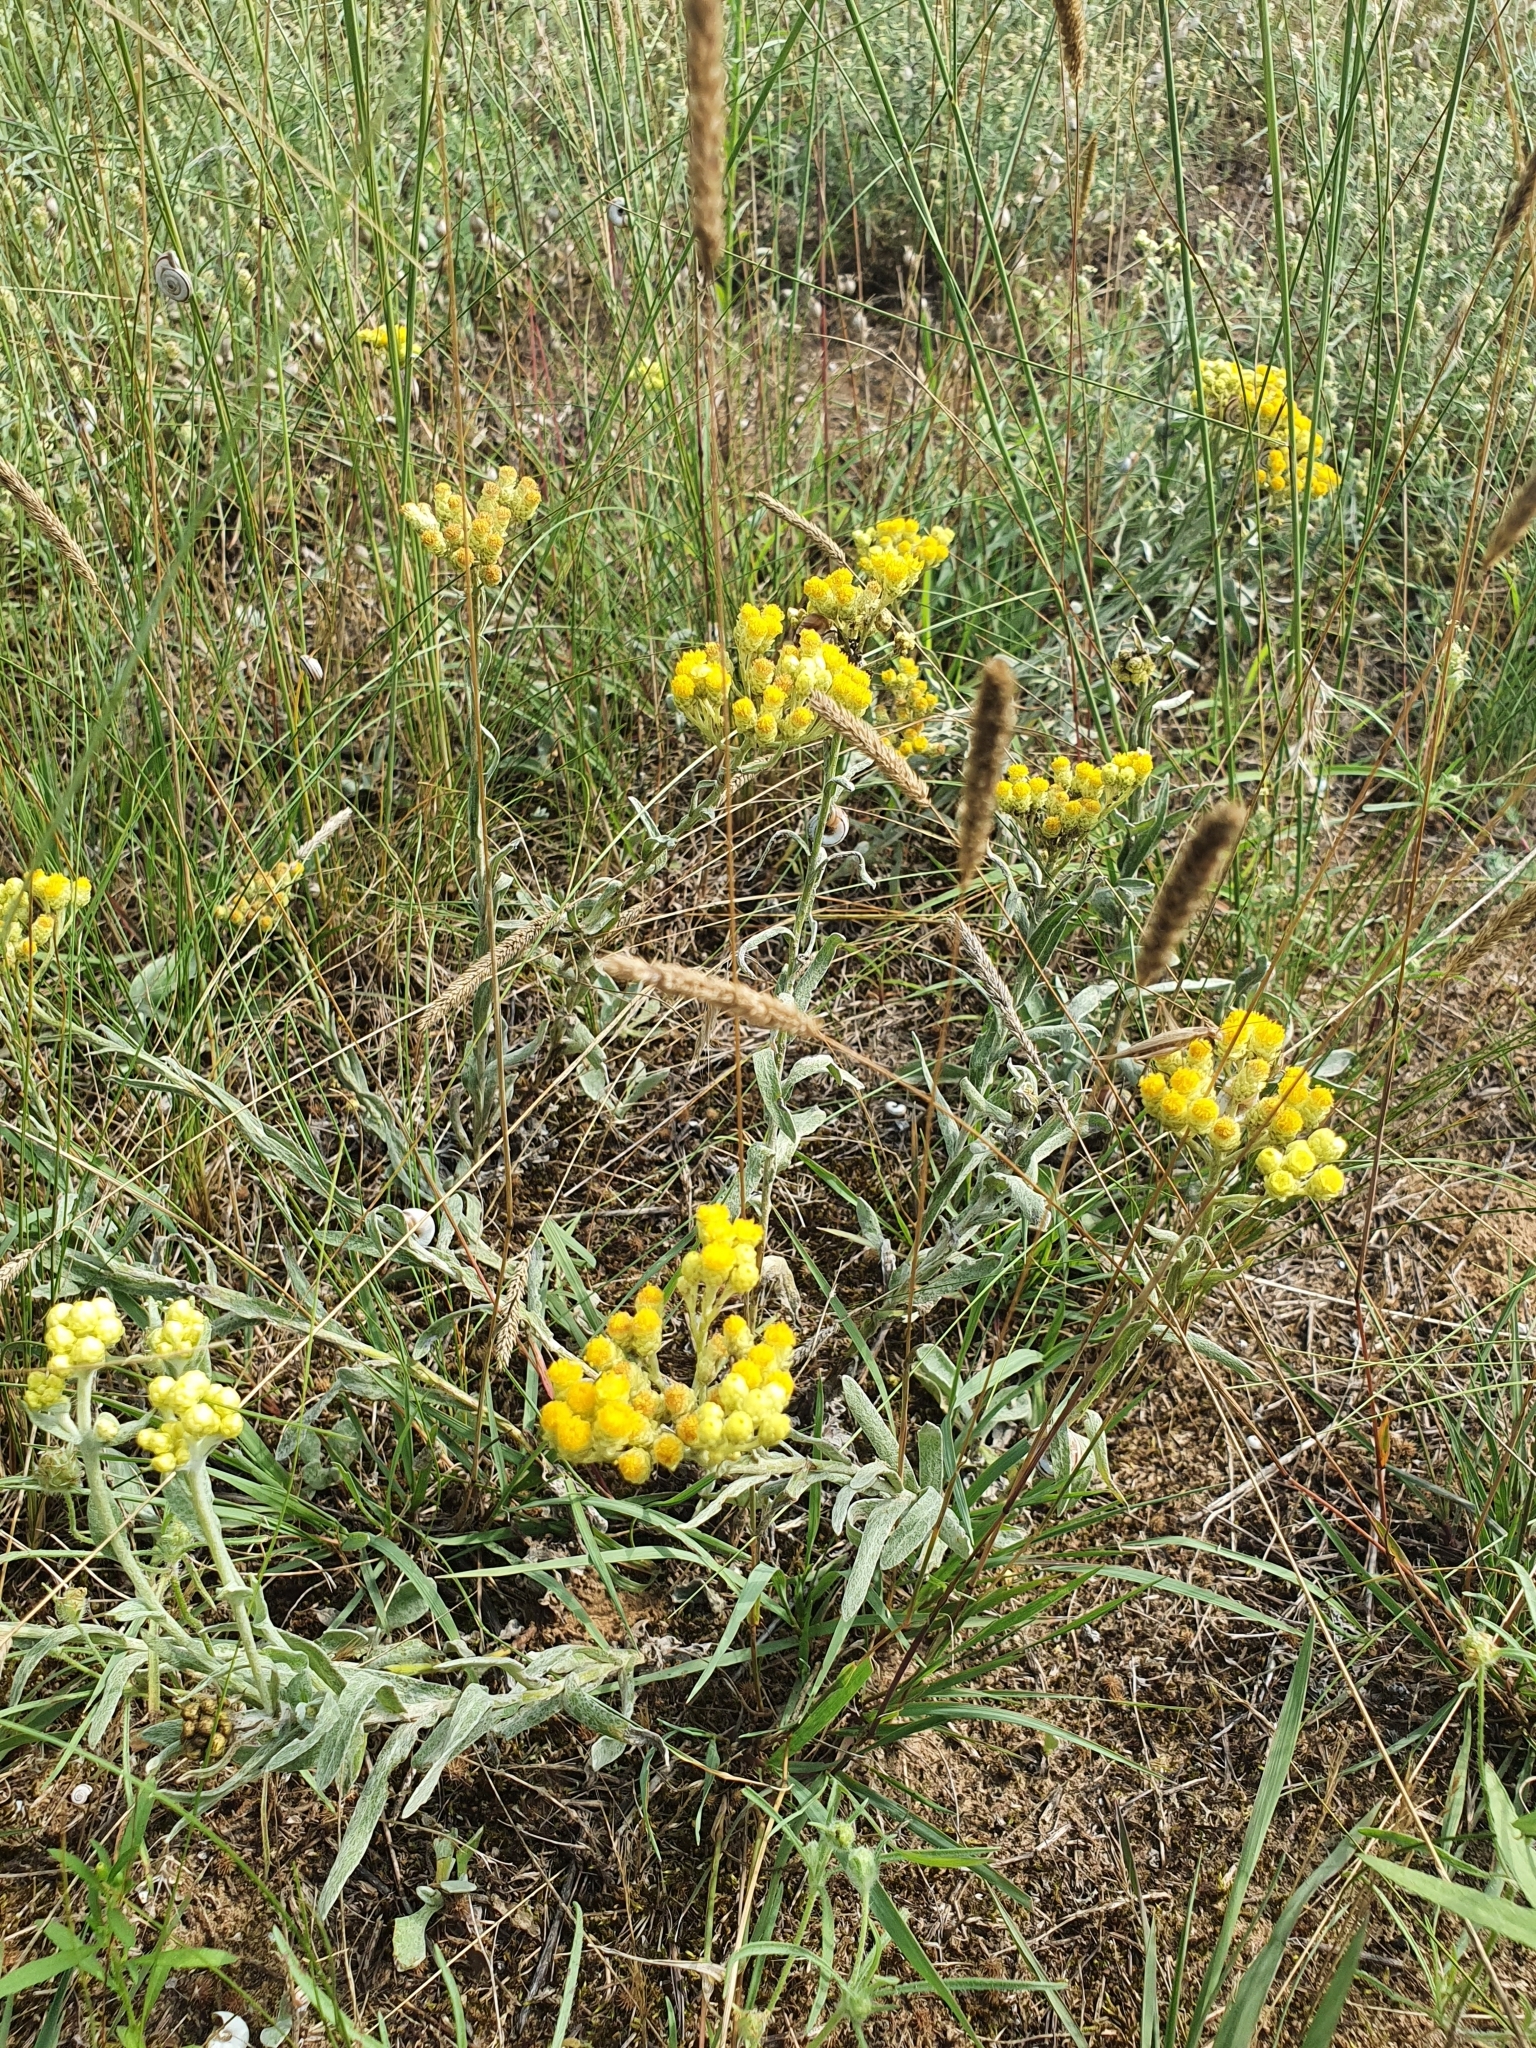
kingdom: Plantae
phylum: Tracheophyta
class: Magnoliopsida
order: Asterales
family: Asteraceae
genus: Helichrysum
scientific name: Helichrysum arenarium
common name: Strawflower
